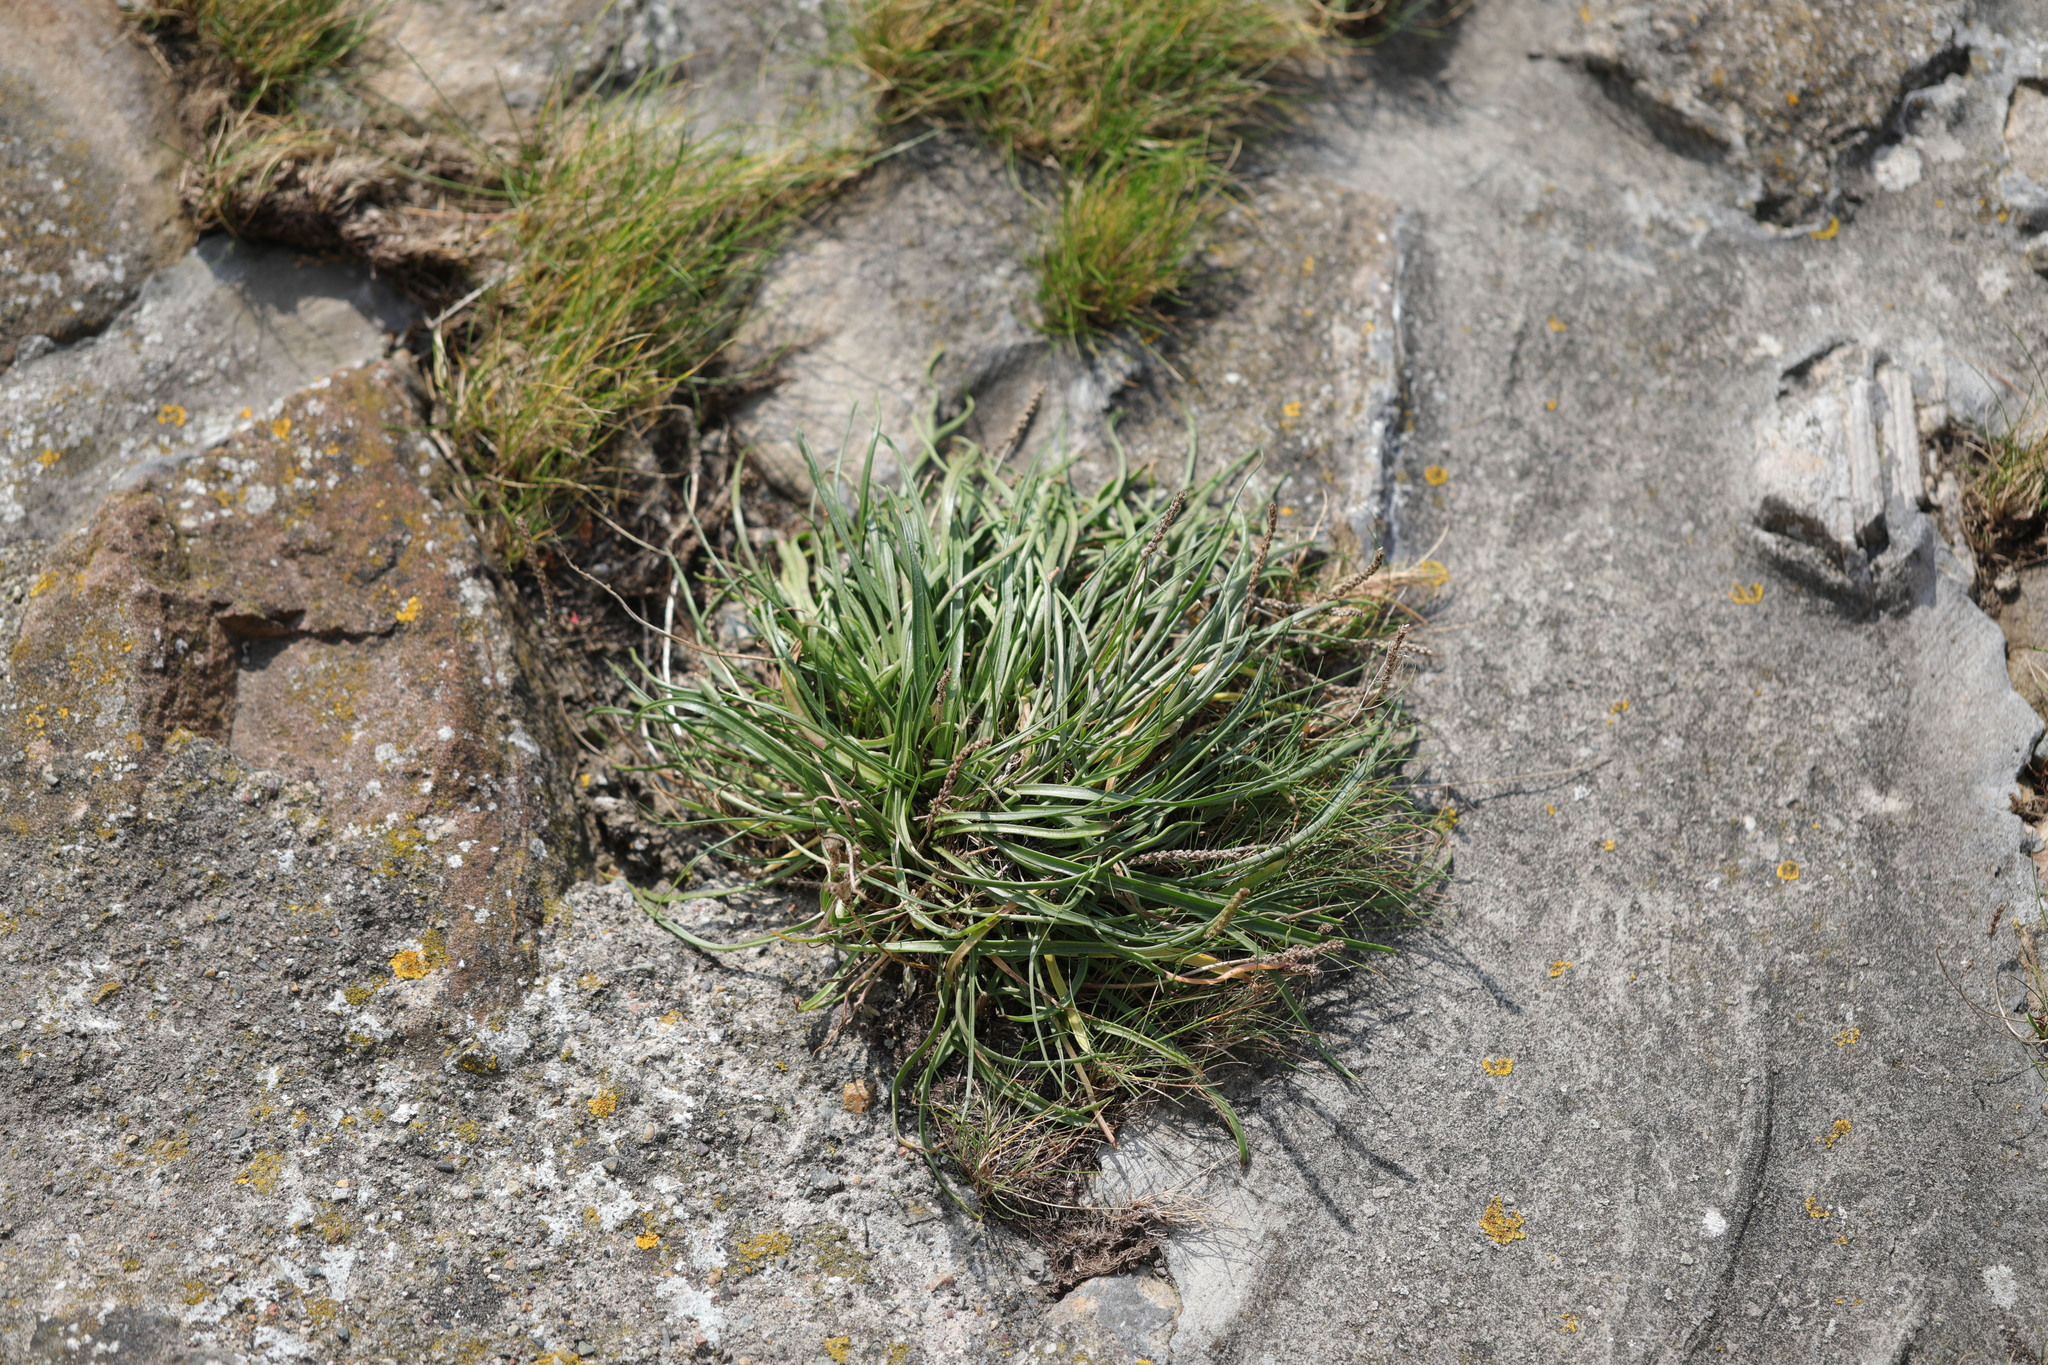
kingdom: Plantae
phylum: Tracheophyta
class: Magnoliopsida
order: Lamiales
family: Plantaginaceae
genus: Plantago
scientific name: Plantago maritima
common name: Sea plantain
